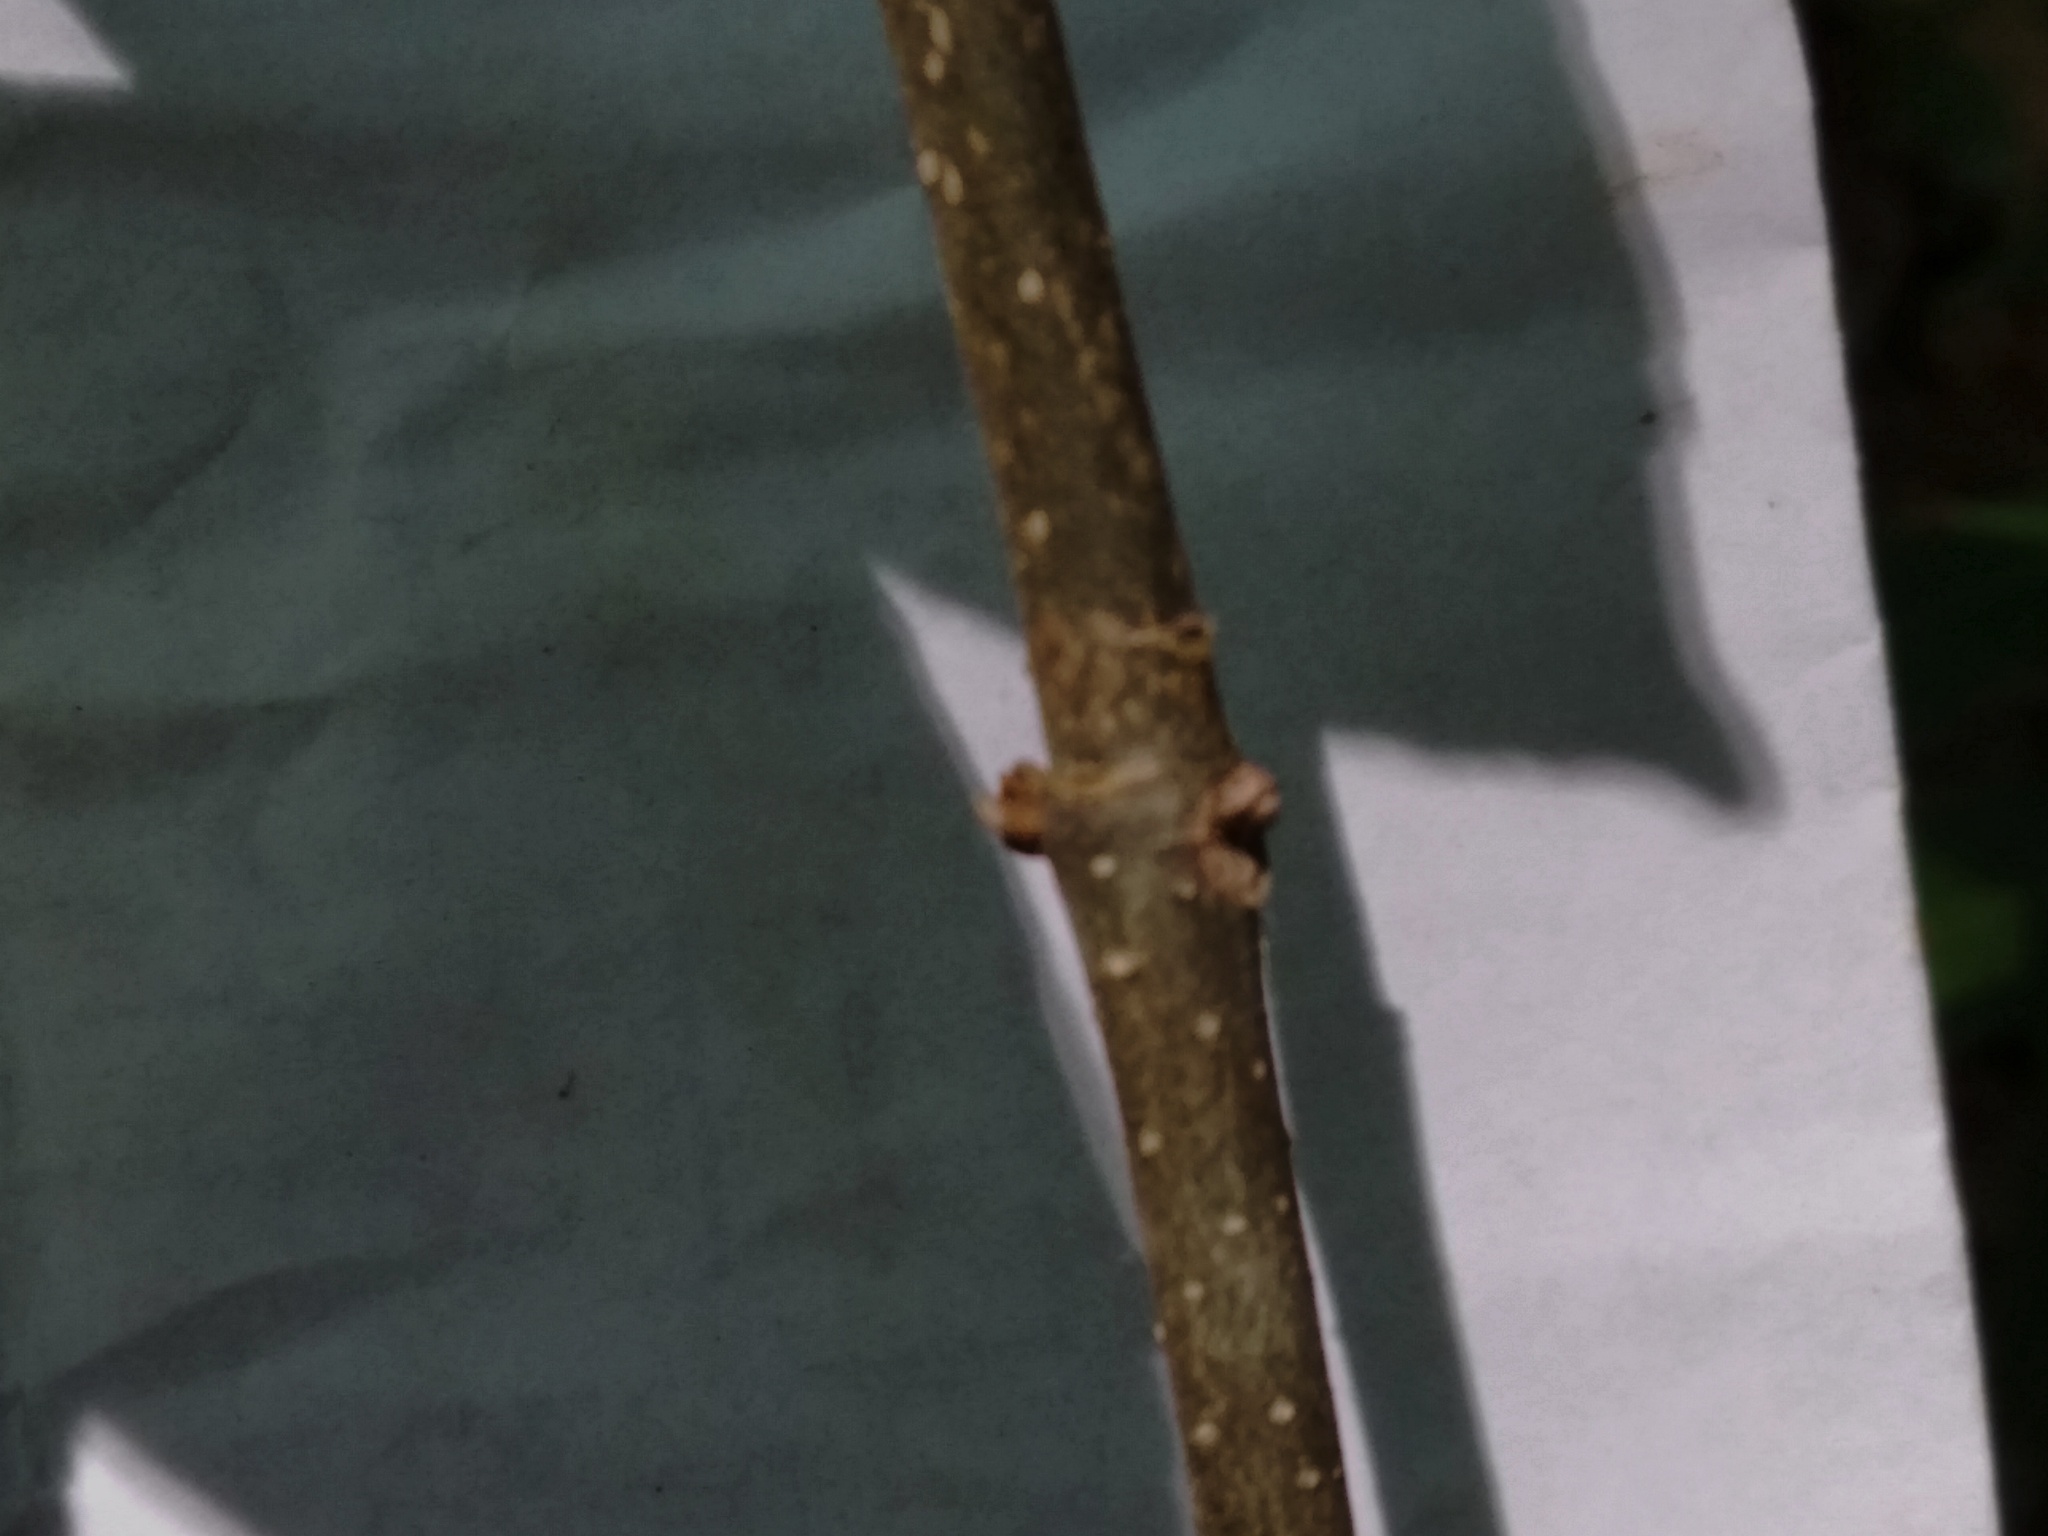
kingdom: Plantae
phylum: Tracheophyta
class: Magnoliopsida
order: Lamiales
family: Oleaceae
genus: Fraxinus
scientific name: Fraxinus pennsylvanica
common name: Green ash
